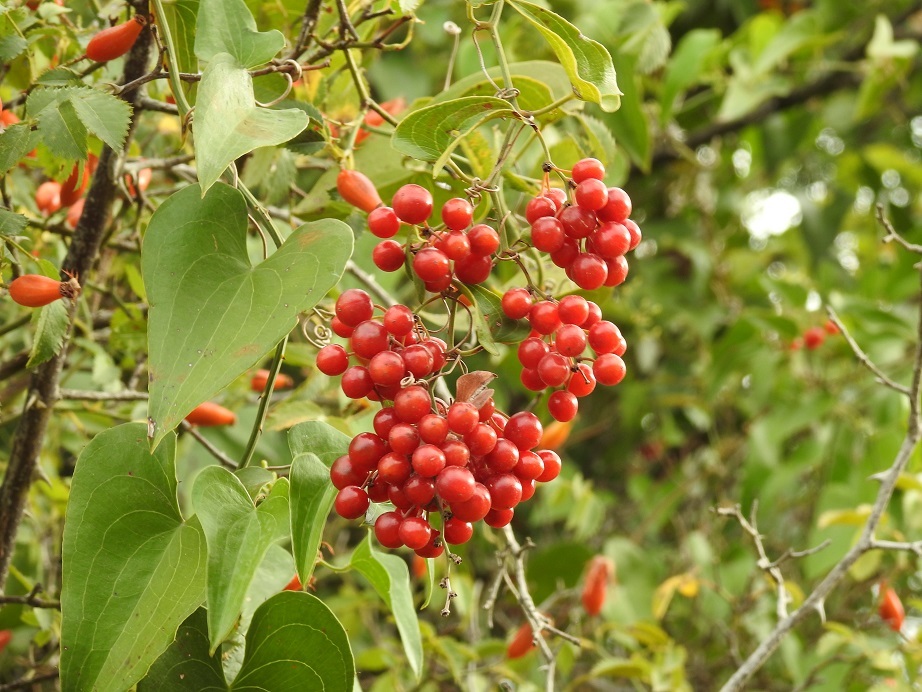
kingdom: Plantae
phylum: Tracheophyta
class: Liliopsida
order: Liliales
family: Smilacaceae
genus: Smilax
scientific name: Smilax aspera
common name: Common smilax
